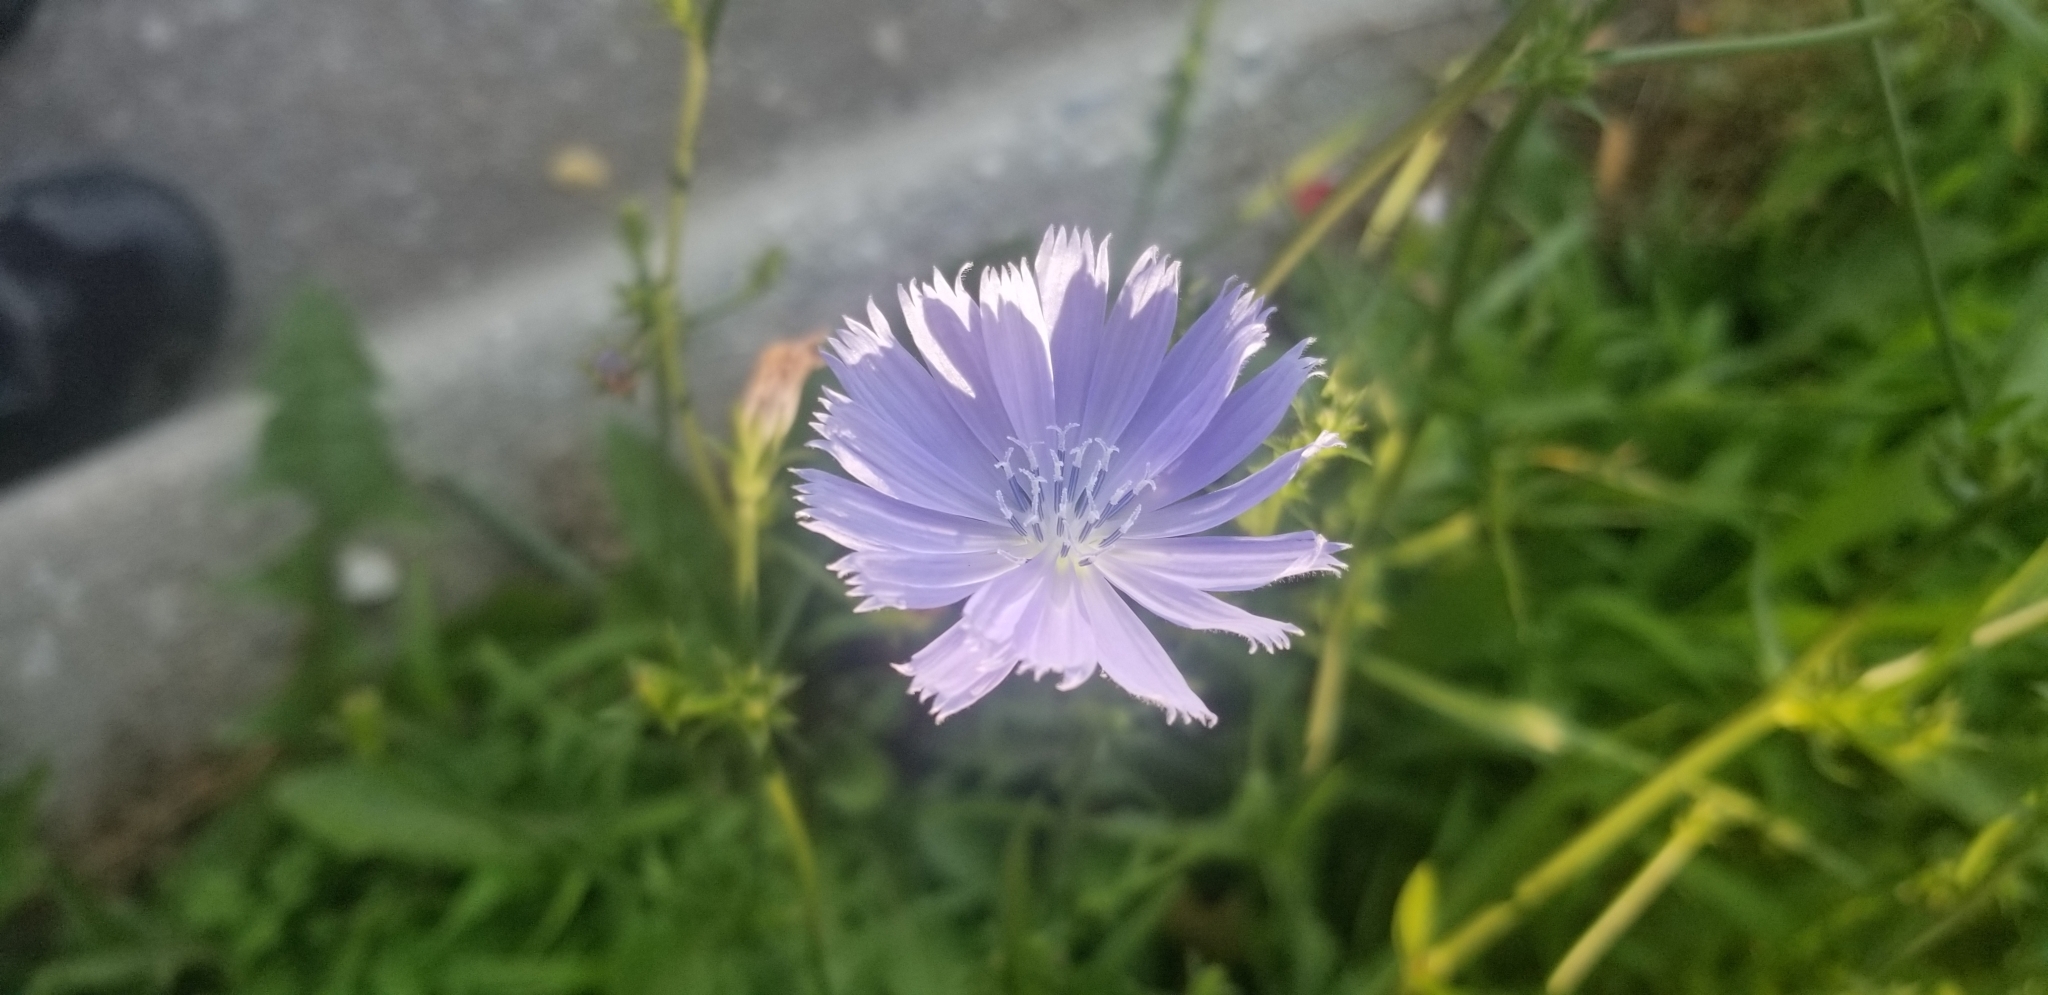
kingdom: Plantae
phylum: Tracheophyta
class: Magnoliopsida
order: Asterales
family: Asteraceae
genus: Cichorium
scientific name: Cichorium intybus
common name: Chicory
